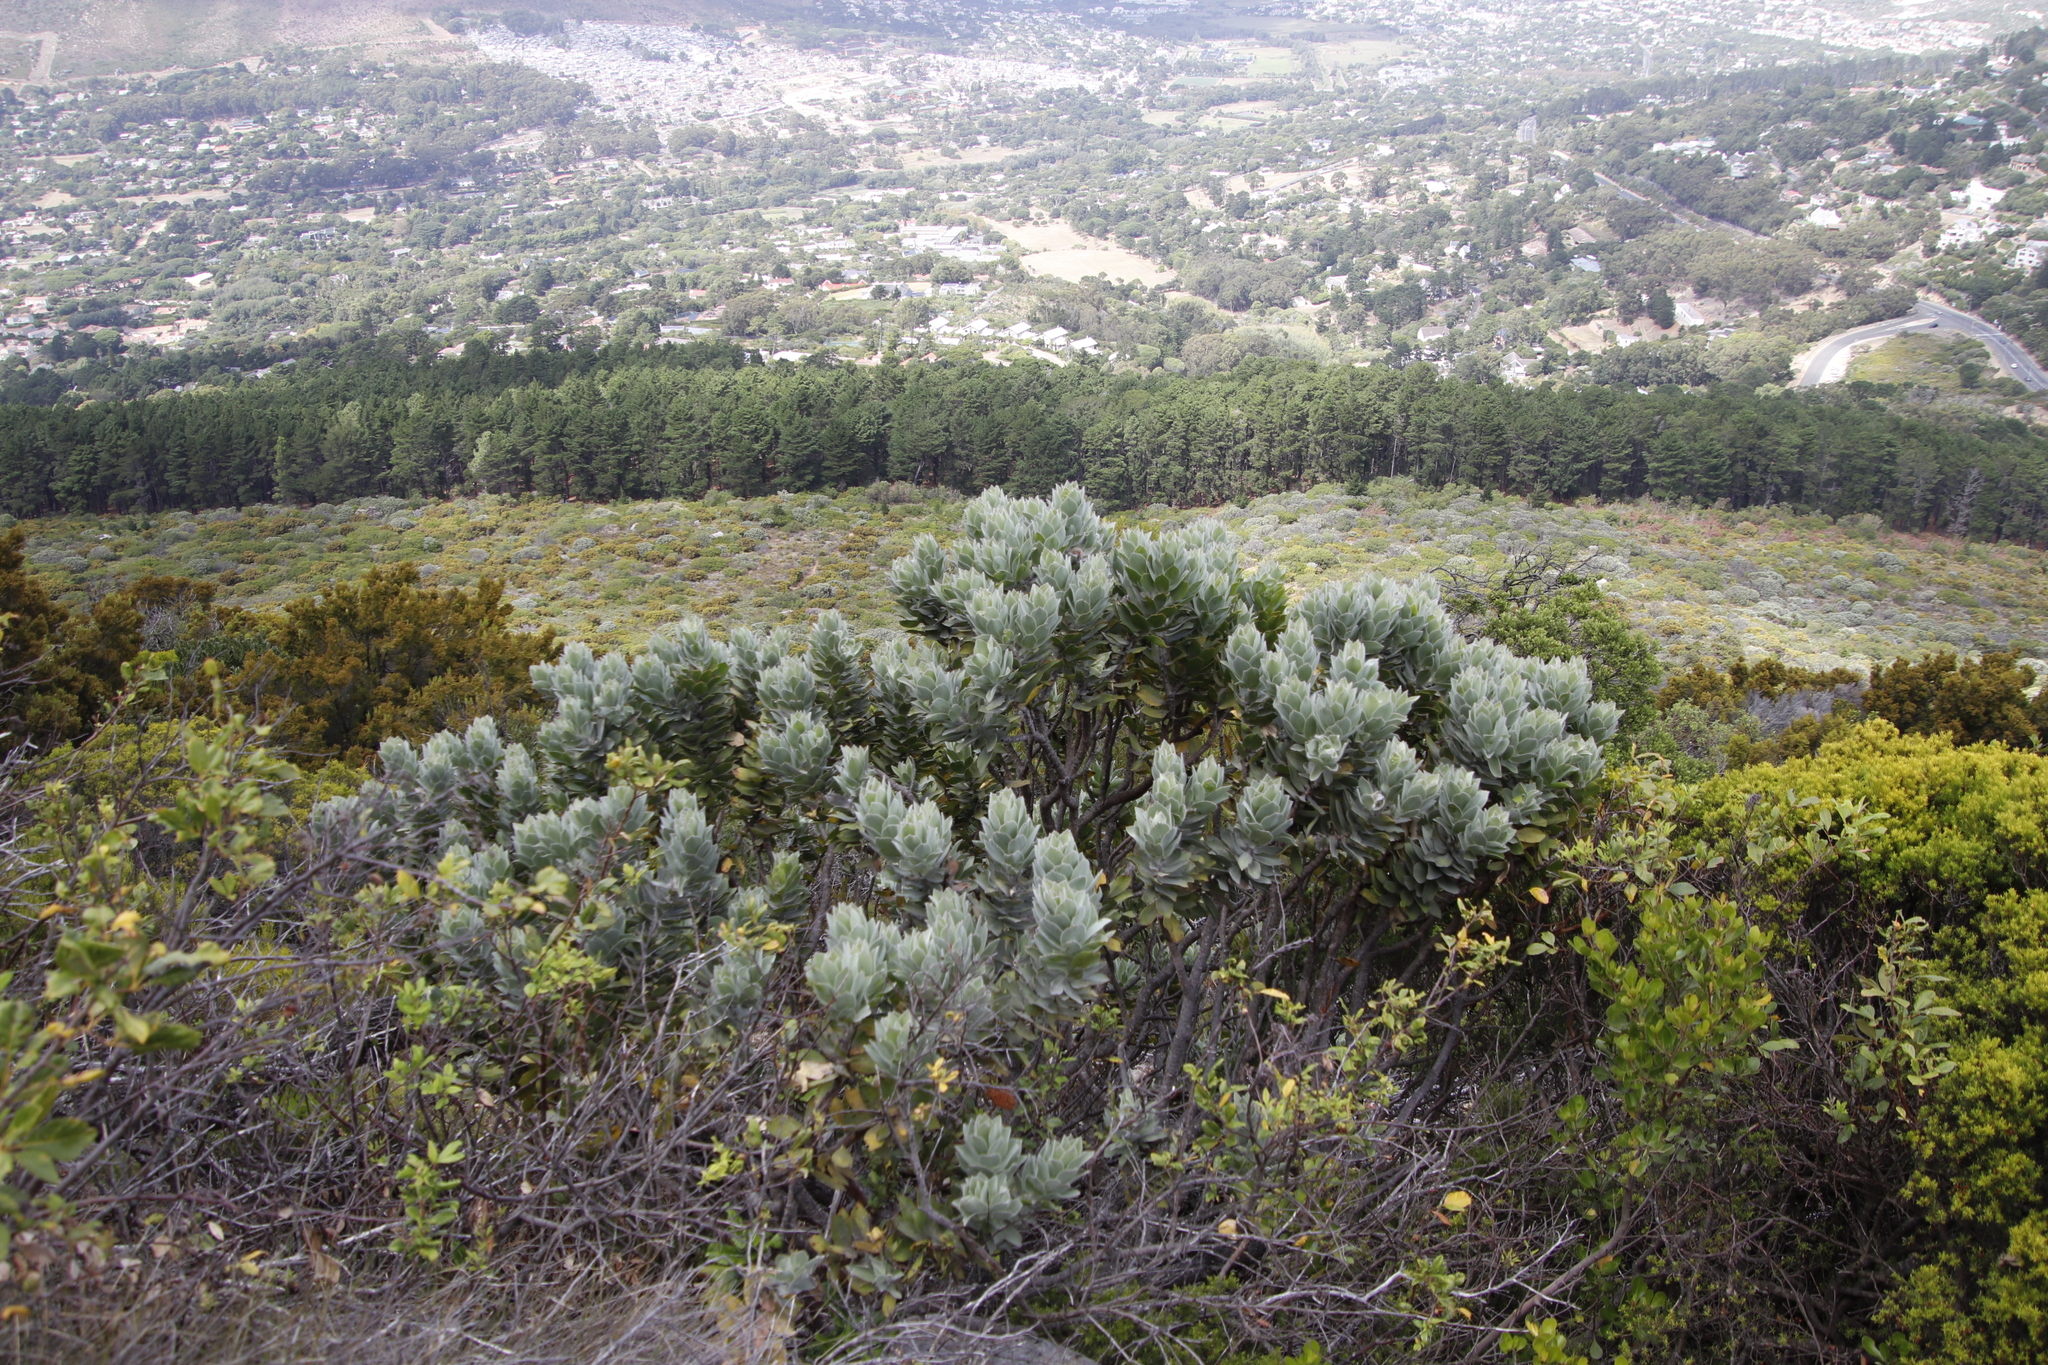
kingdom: Plantae
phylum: Tracheophyta
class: Magnoliopsida
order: Proteales
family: Proteaceae
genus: Leucospermum
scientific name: Leucospermum conocarpodendron
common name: Tree pincushion
